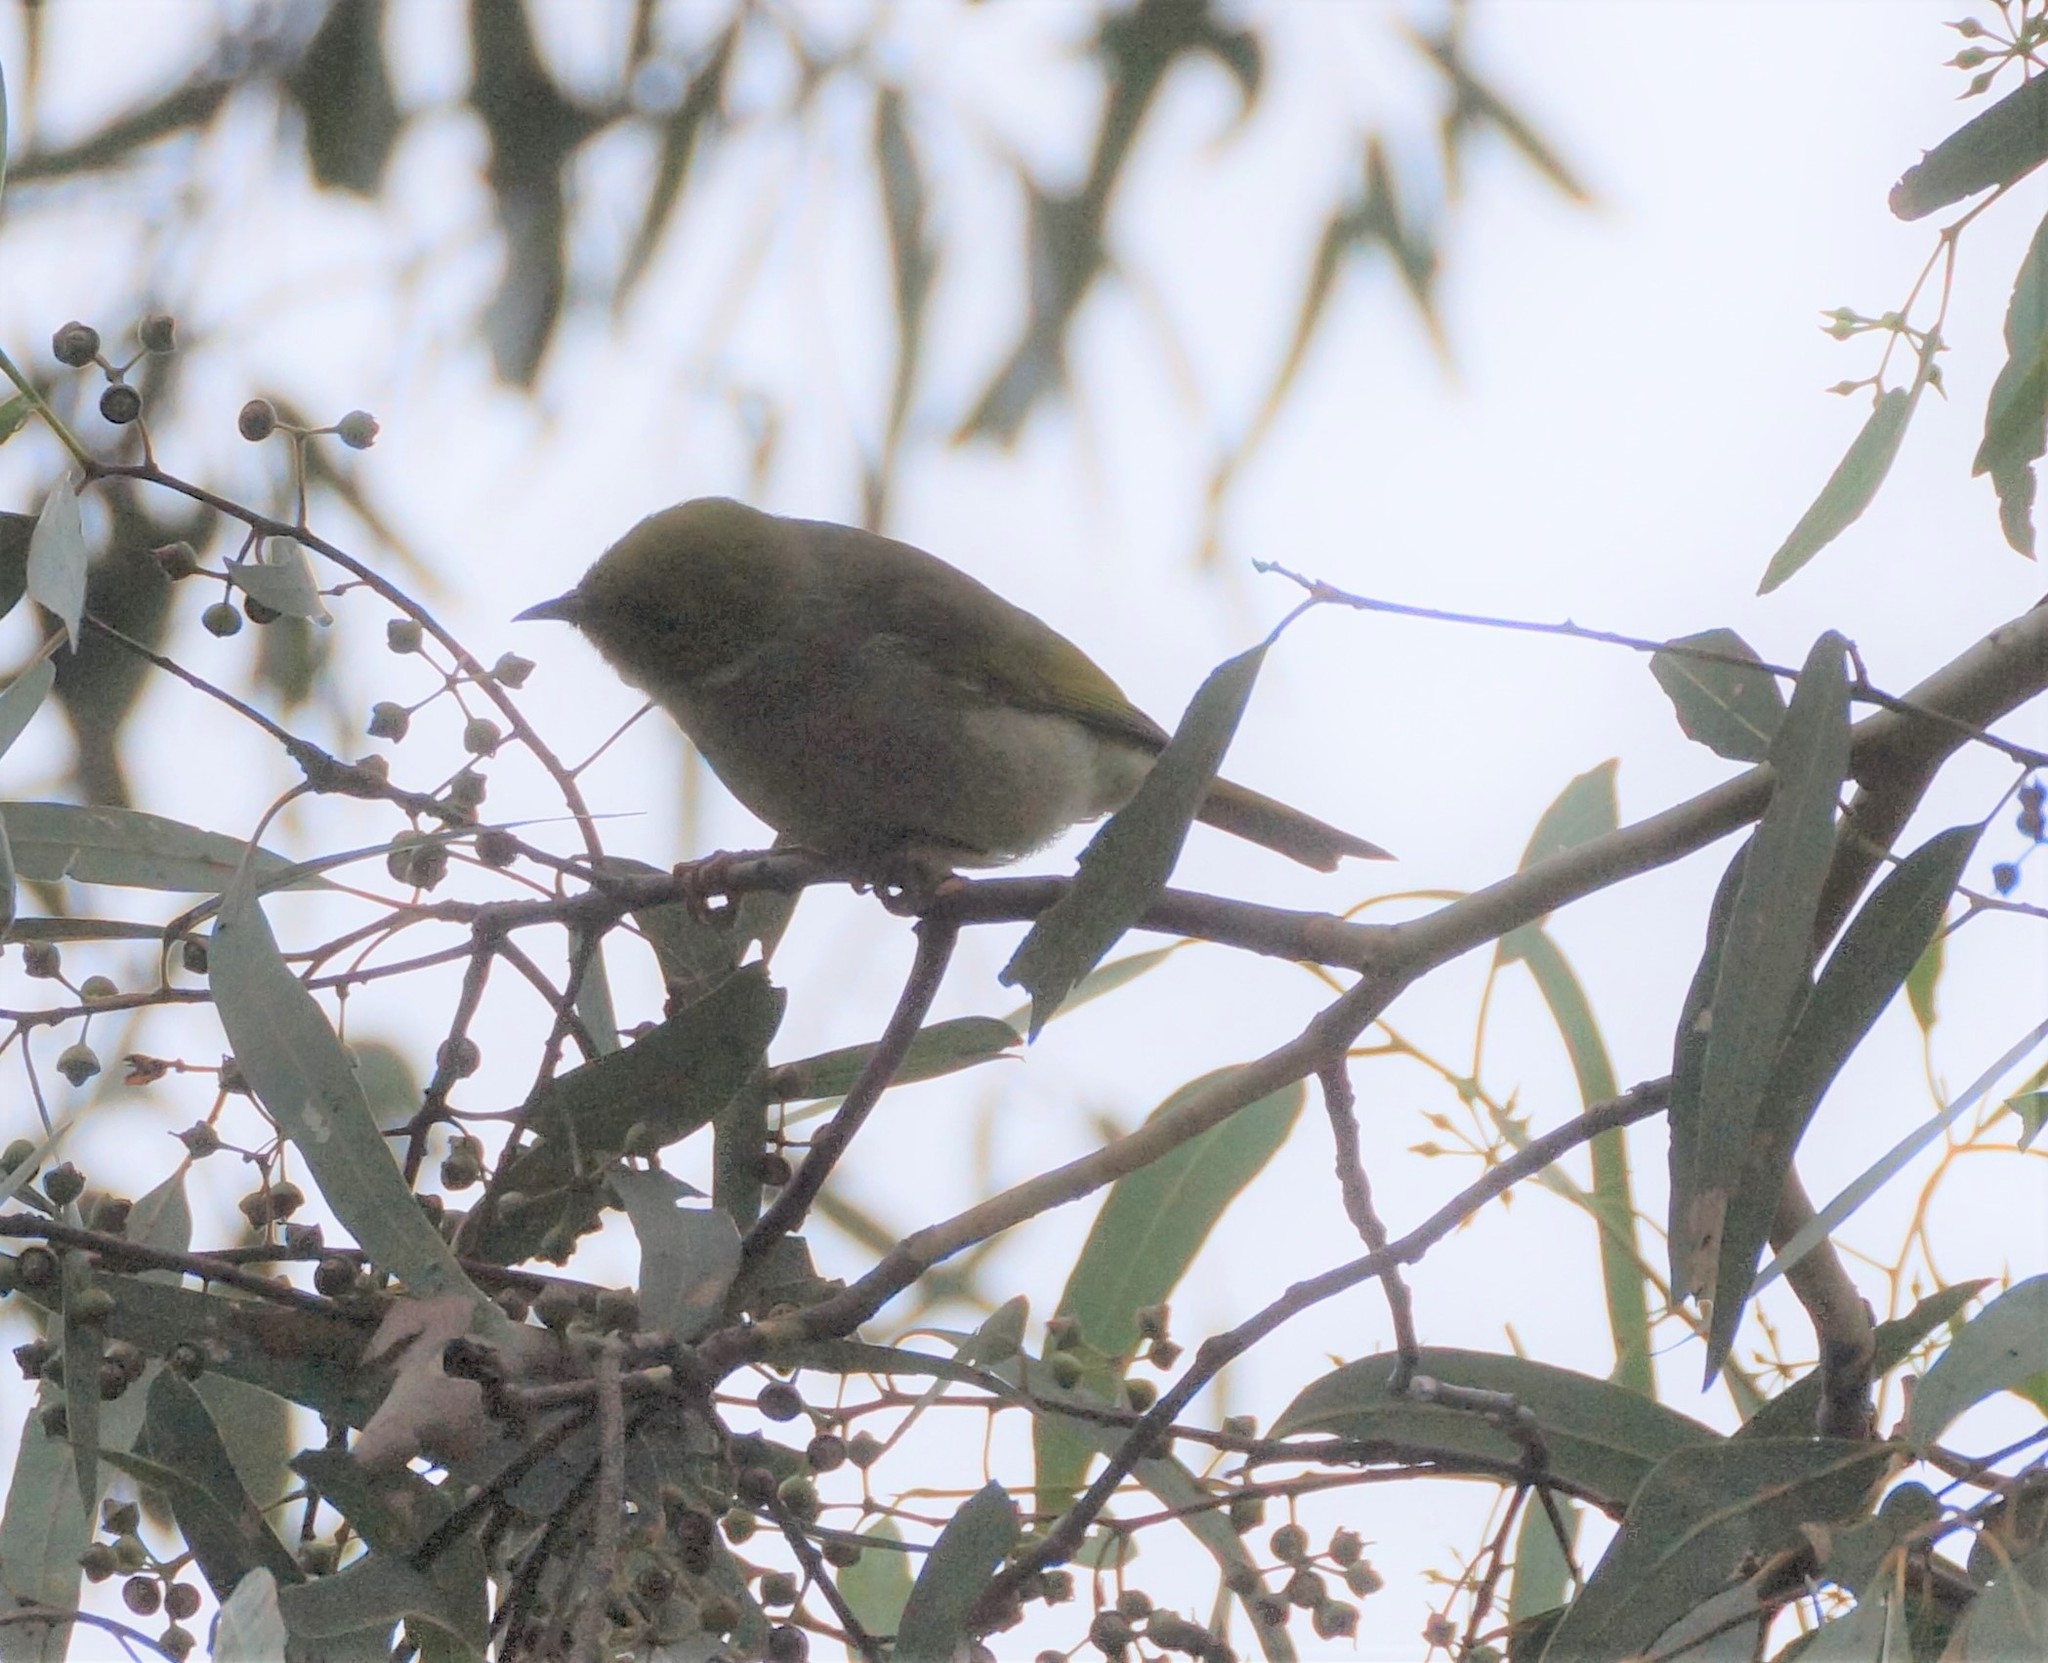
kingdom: Animalia
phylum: Chordata
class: Aves
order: Passeriformes
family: Meliphagidae
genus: Ptilotula
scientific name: Ptilotula penicillata
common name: White-plumed honeyeater
